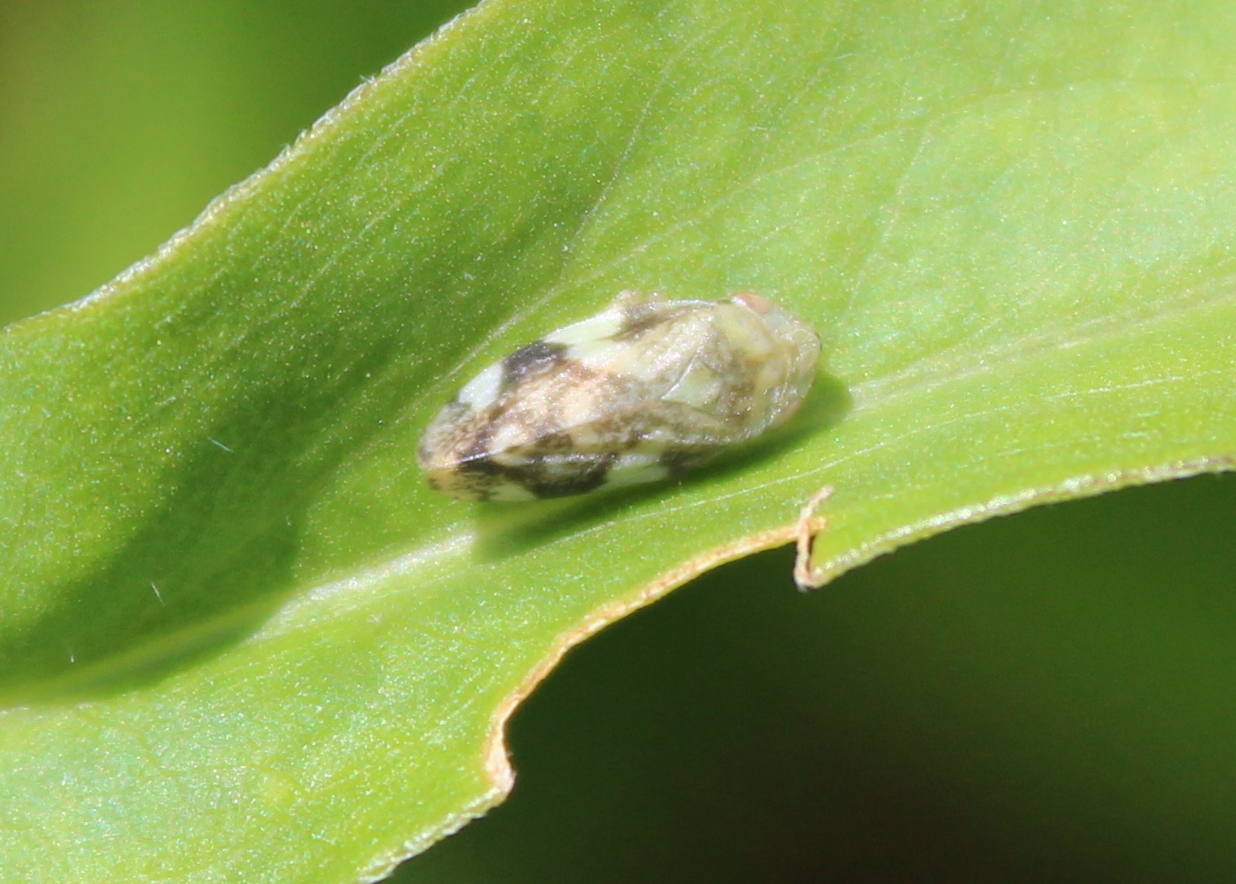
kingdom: Animalia
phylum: Arthropoda
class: Insecta
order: Hemiptera
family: Aphrophoridae
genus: Philaenus
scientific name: Philaenus spumarius
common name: Meadow spittlebug
